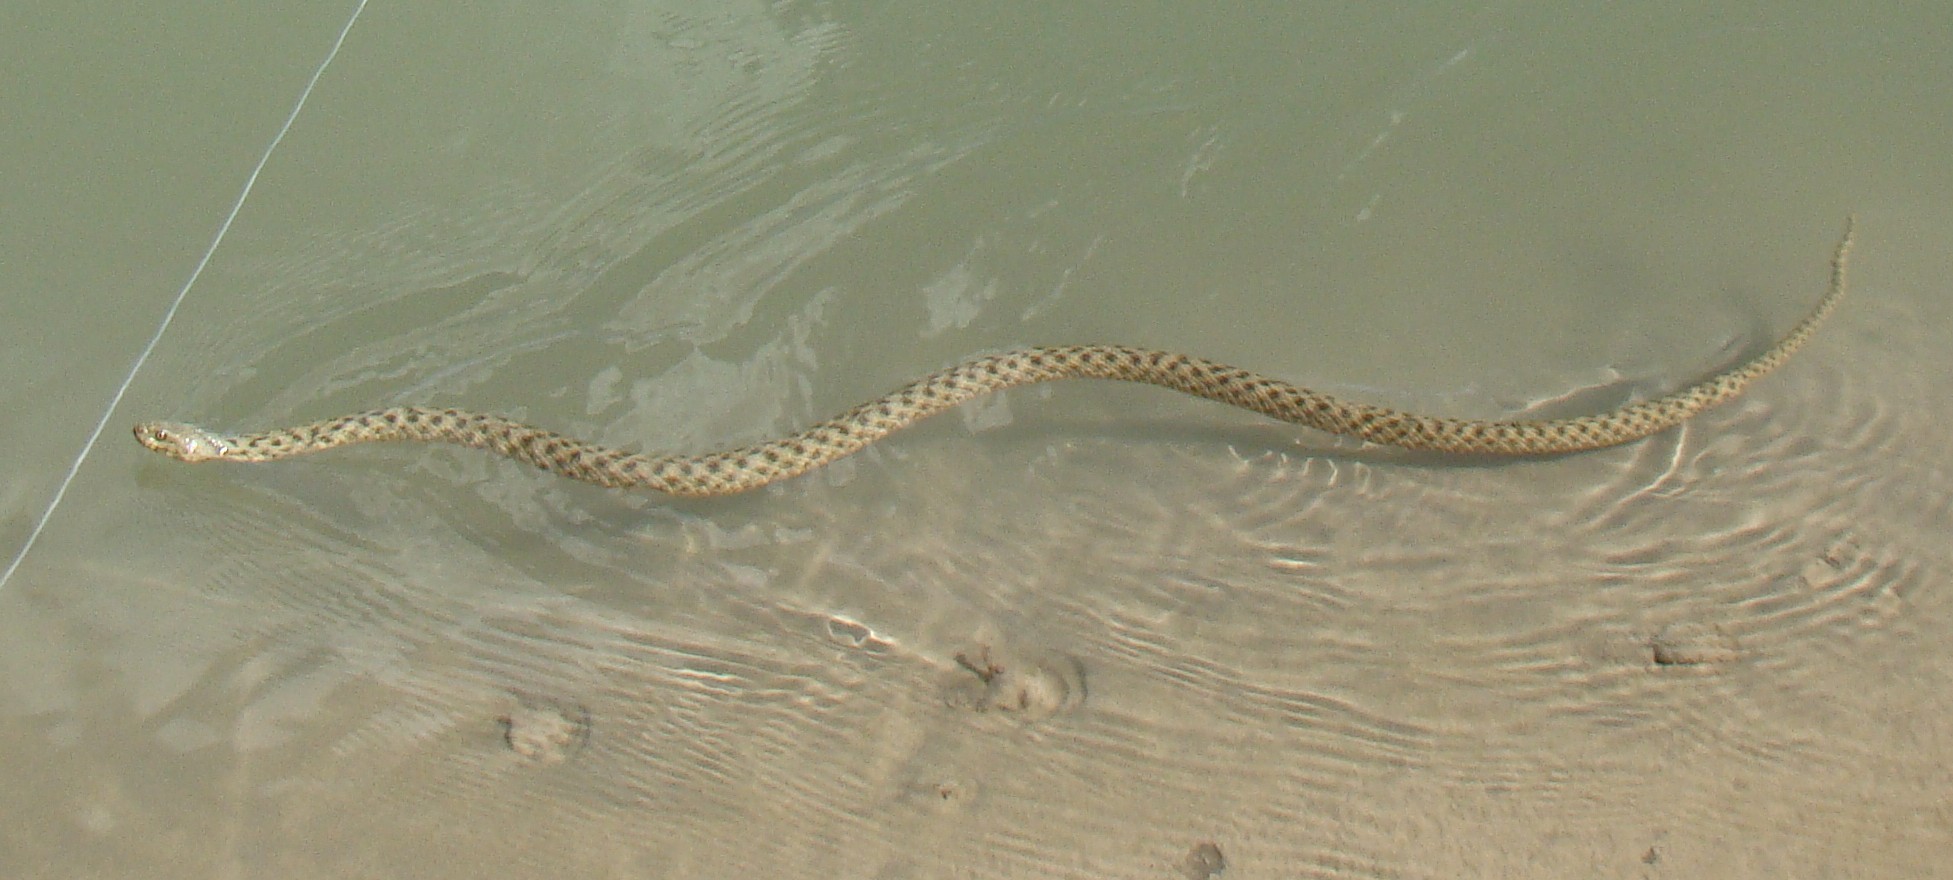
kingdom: Animalia
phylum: Chordata
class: Squamata
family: Colubridae
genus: Natrix
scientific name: Natrix tessellata
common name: Dice snake
